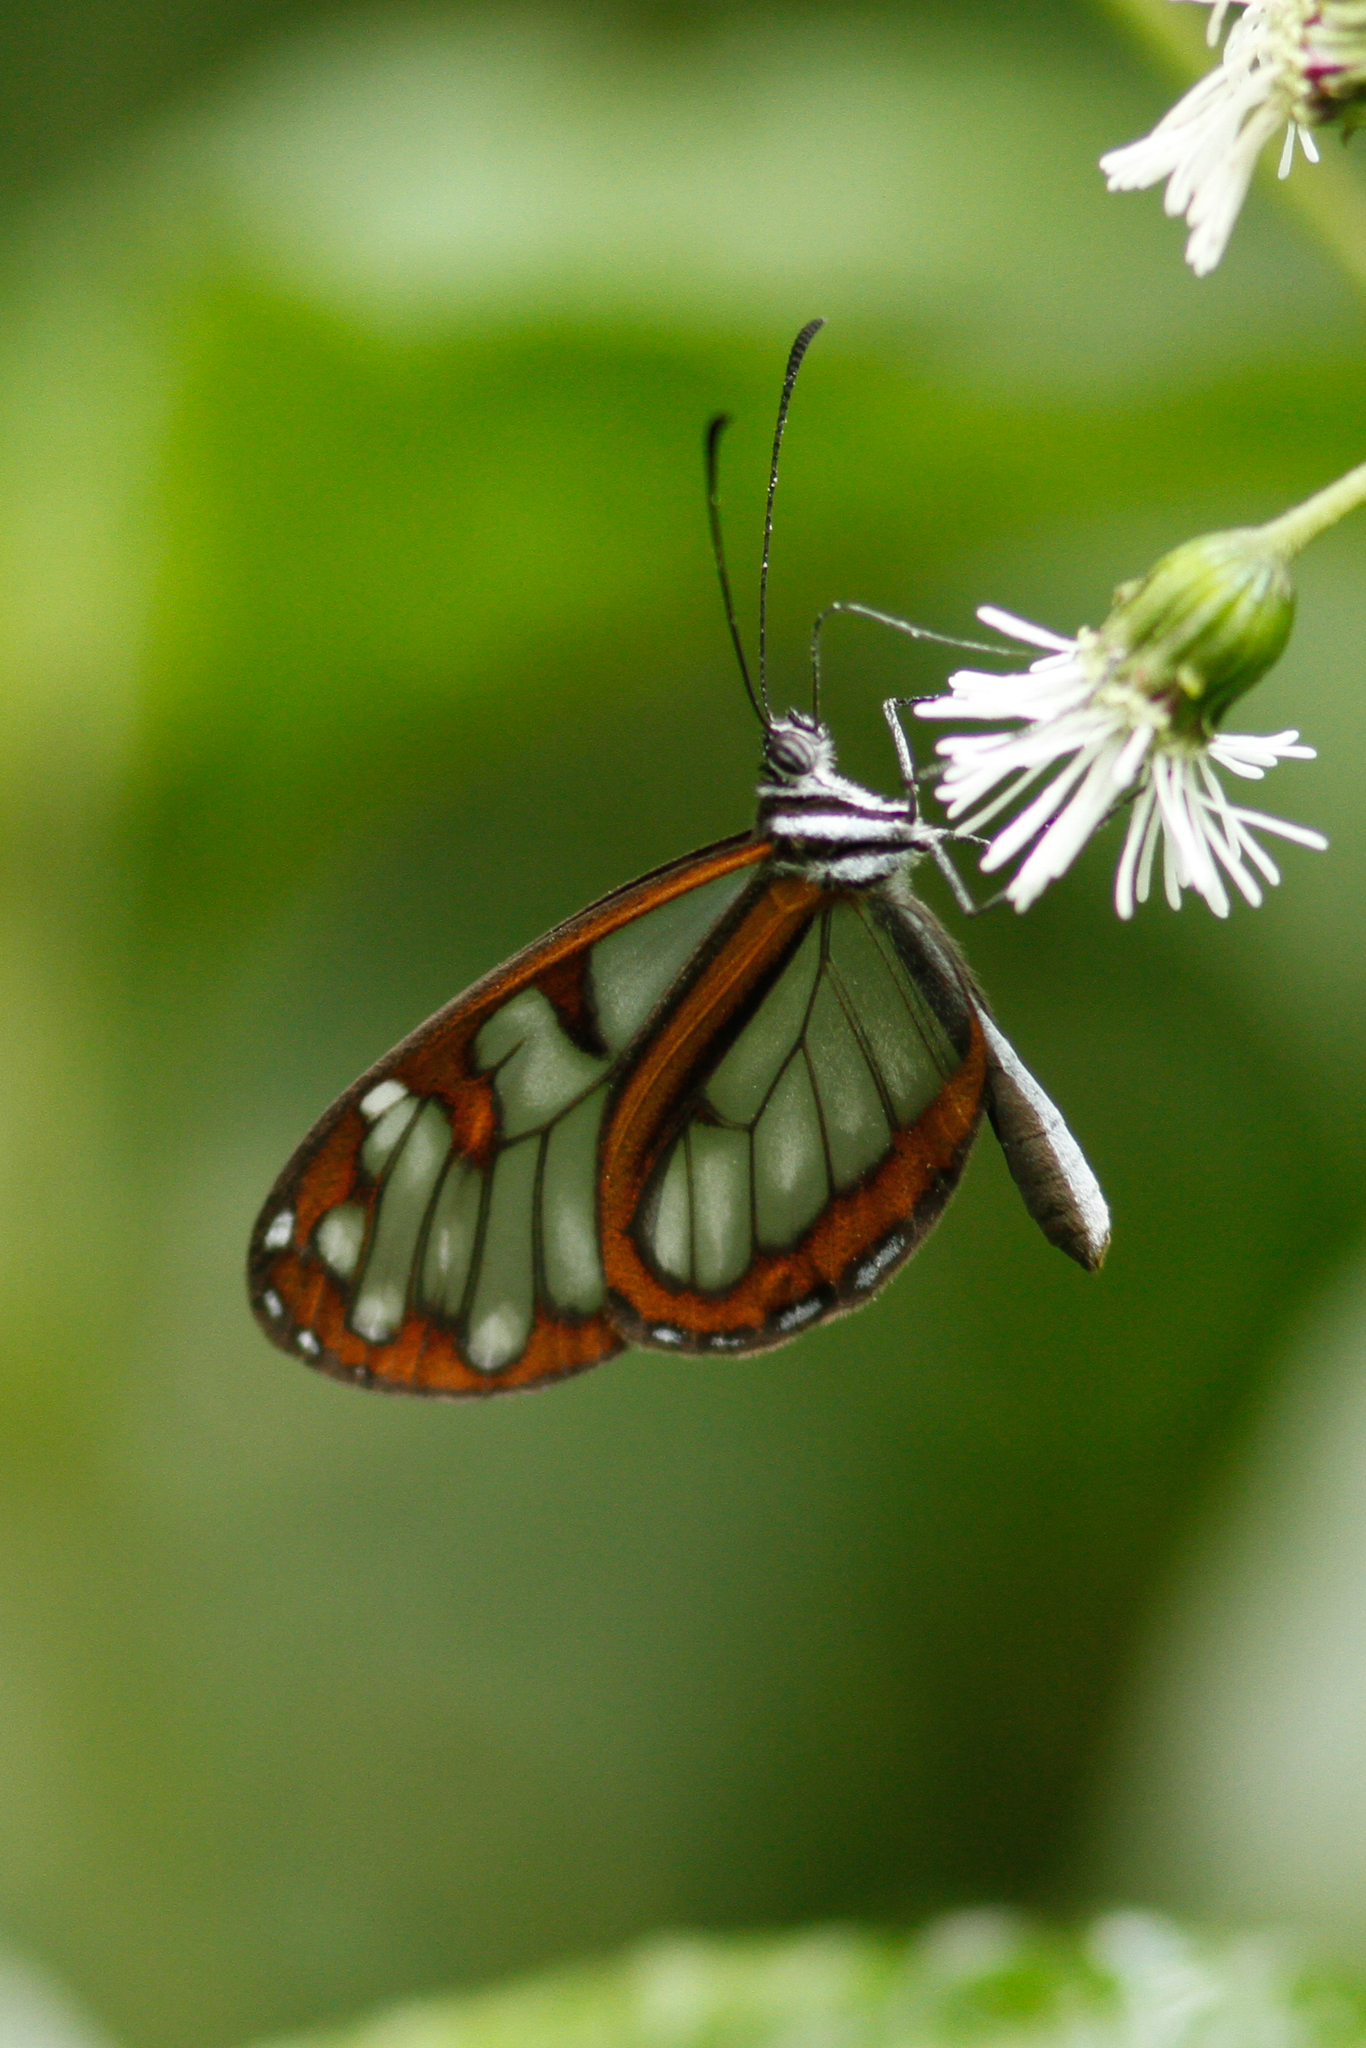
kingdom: Animalia
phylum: Arthropoda
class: Insecta
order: Lepidoptera
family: Nymphalidae
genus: Oleria
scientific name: Oleria tremona
